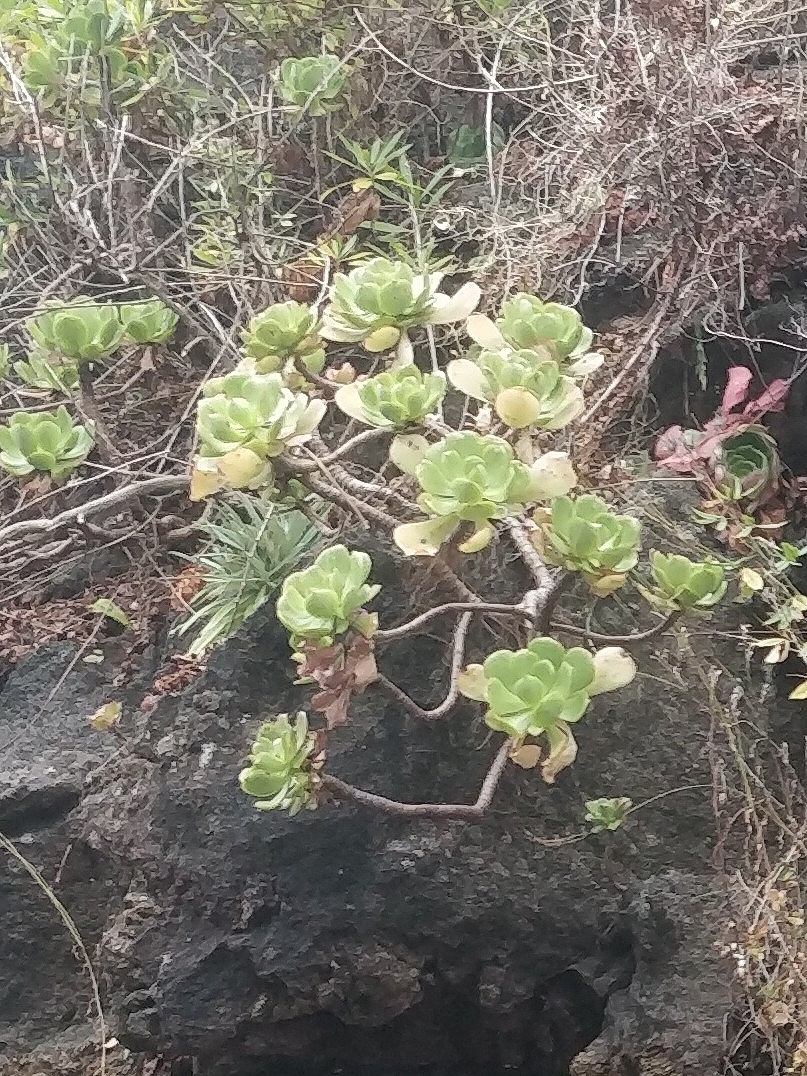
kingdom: Plantae
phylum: Tracheophyta
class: Magnoliopsida
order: Saxifragales
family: Crassulaceae
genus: Aeonium
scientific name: Aeonium glutinosum
